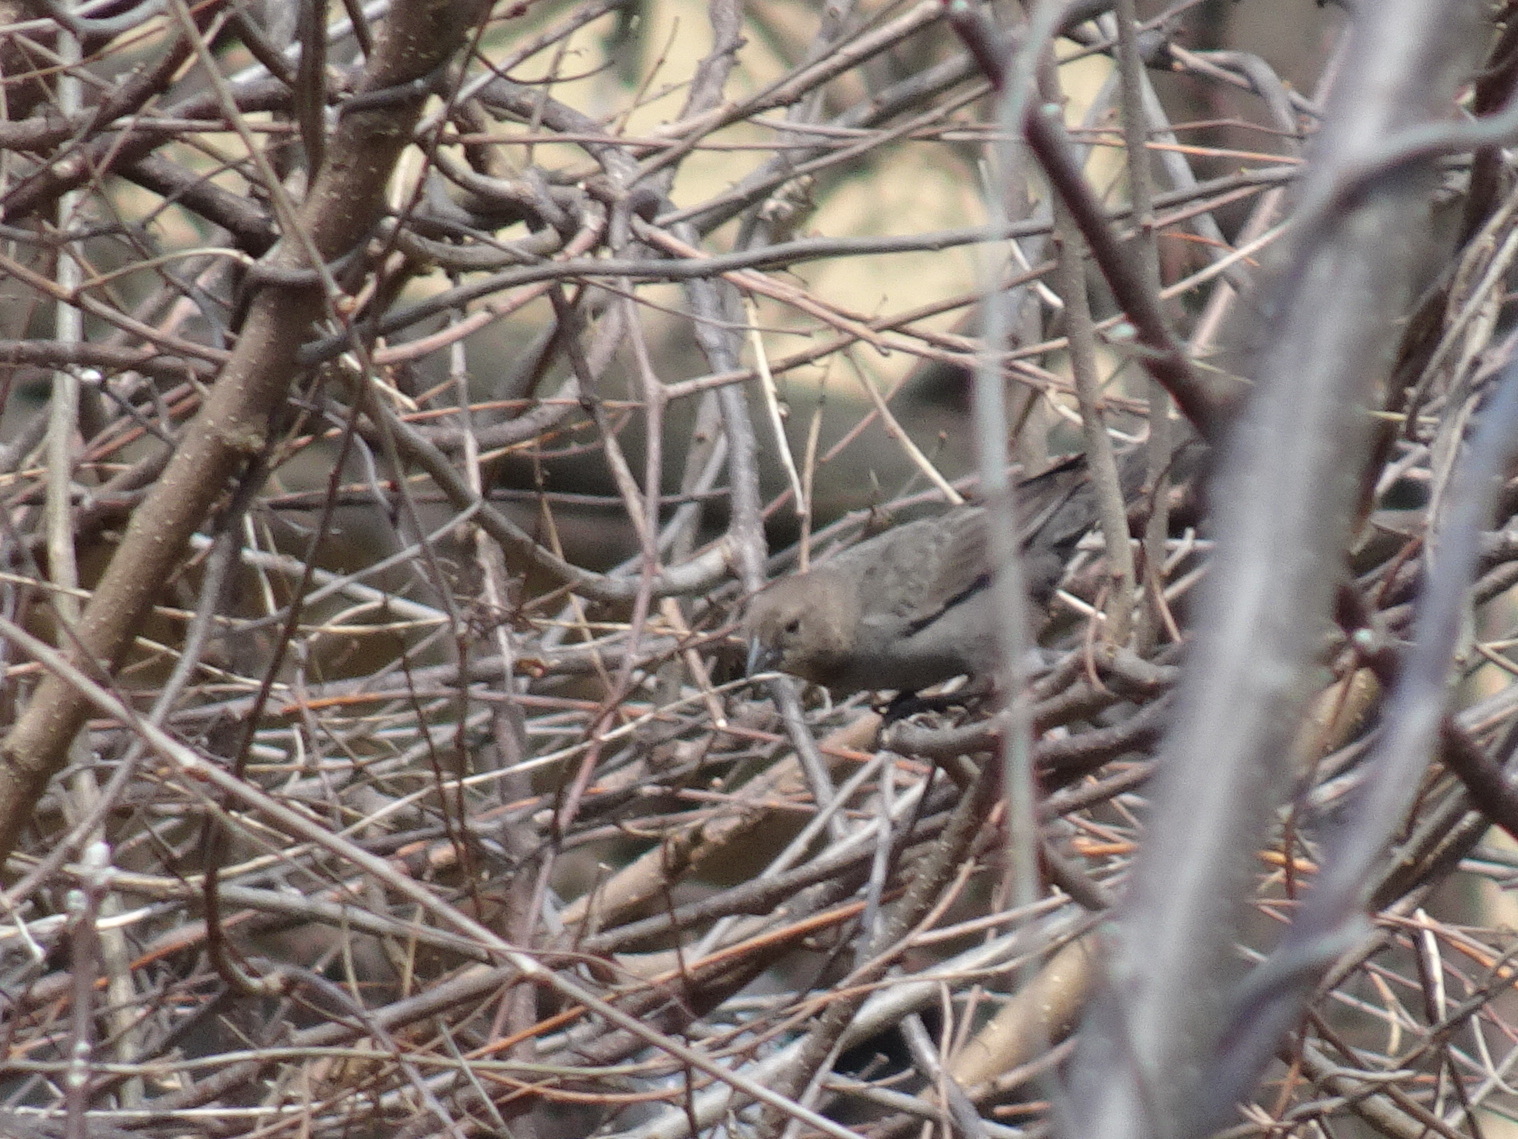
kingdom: Animalia
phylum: Chordata
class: Aves
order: Passeriformes
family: Icteridae
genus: Molothrus
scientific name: Molothrus ater
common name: Brown-headed cowbird
